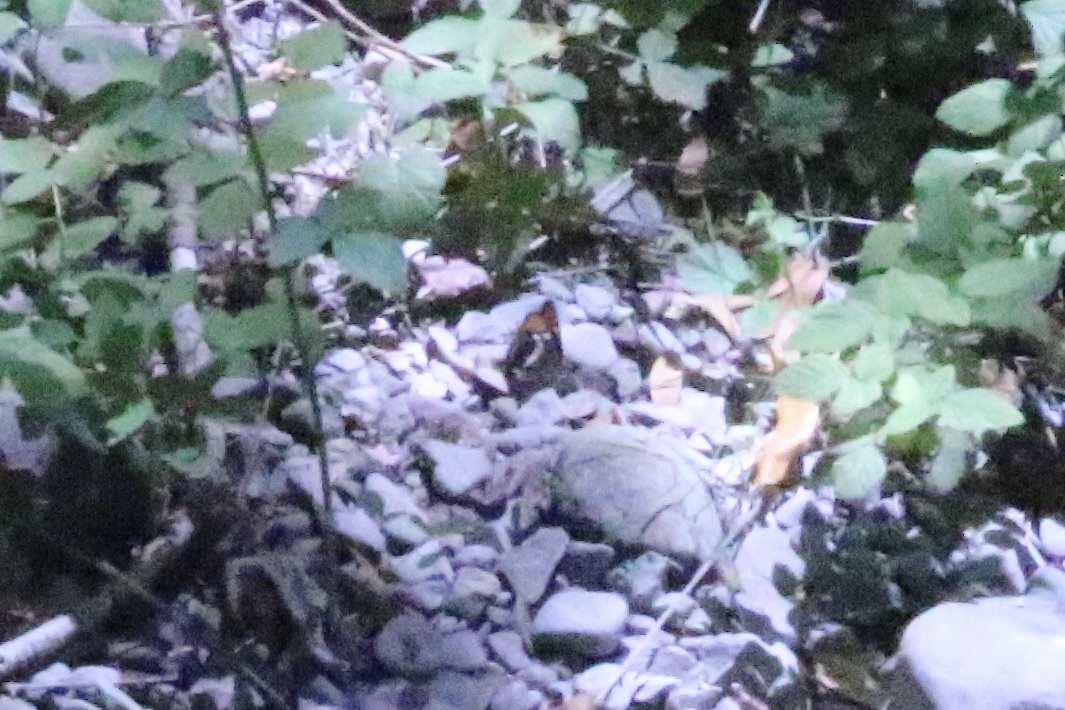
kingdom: Animalia
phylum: Arthropoda
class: Insecta
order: Lepidoptera
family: Nymphalidae
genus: Limenitis
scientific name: Limenitis bredowii
